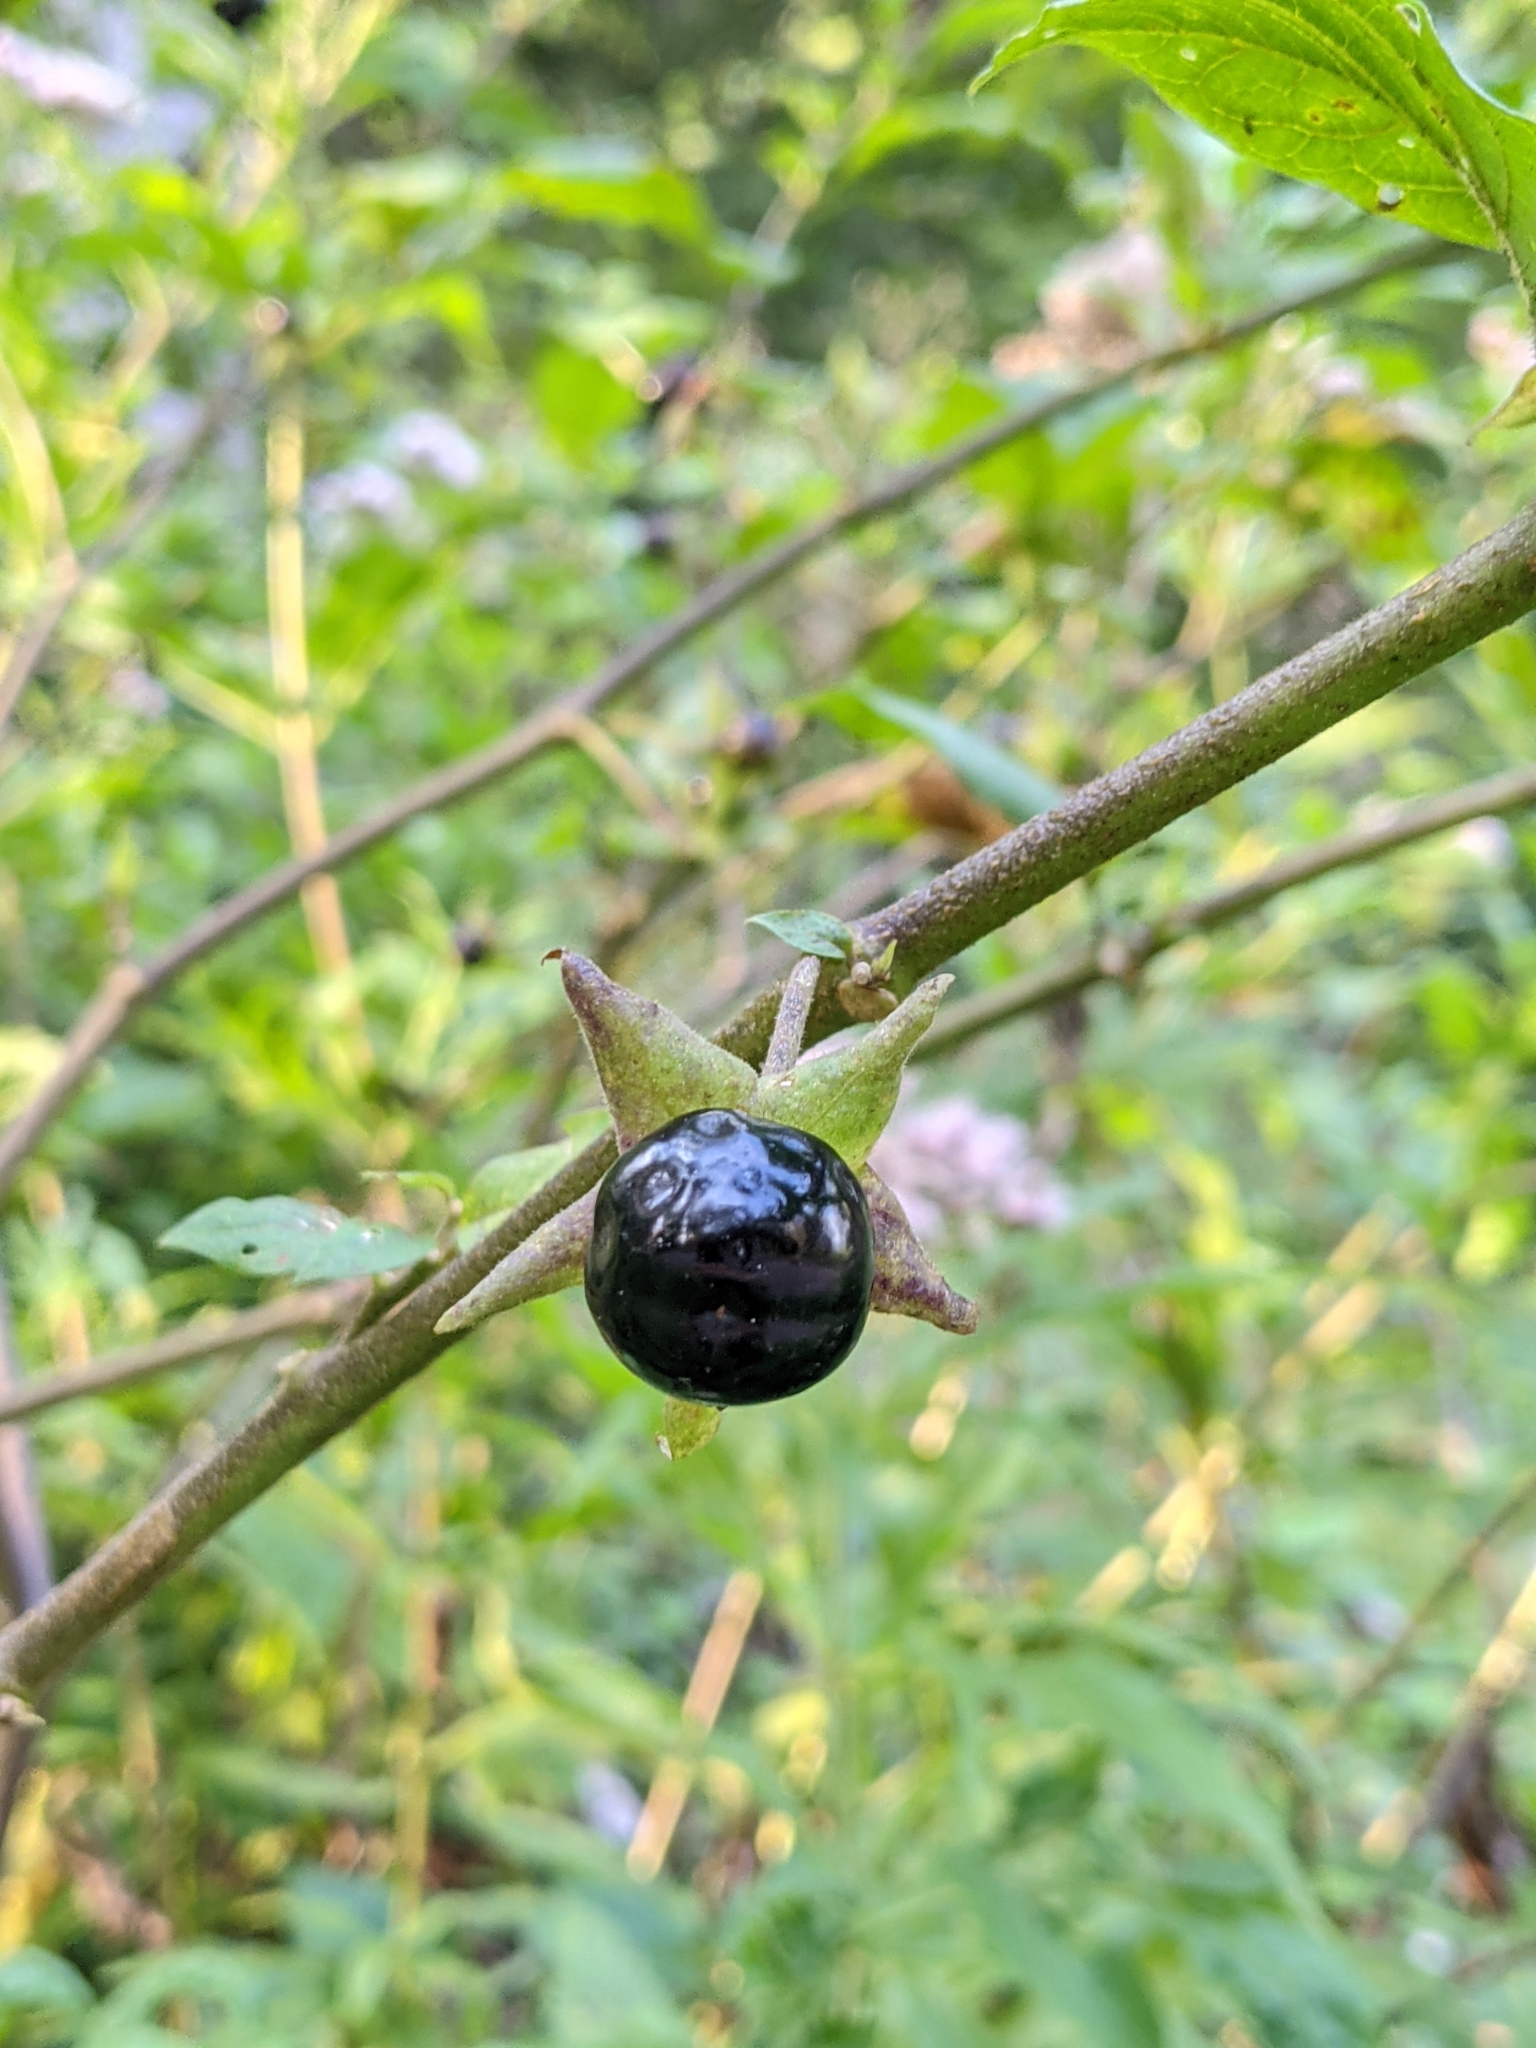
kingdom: Plantae
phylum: Tracheophyta
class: Magnoliopsida
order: Solanales
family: Solanaceae
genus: Atropa
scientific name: Atropa belladonna
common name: Deadly nightshade
